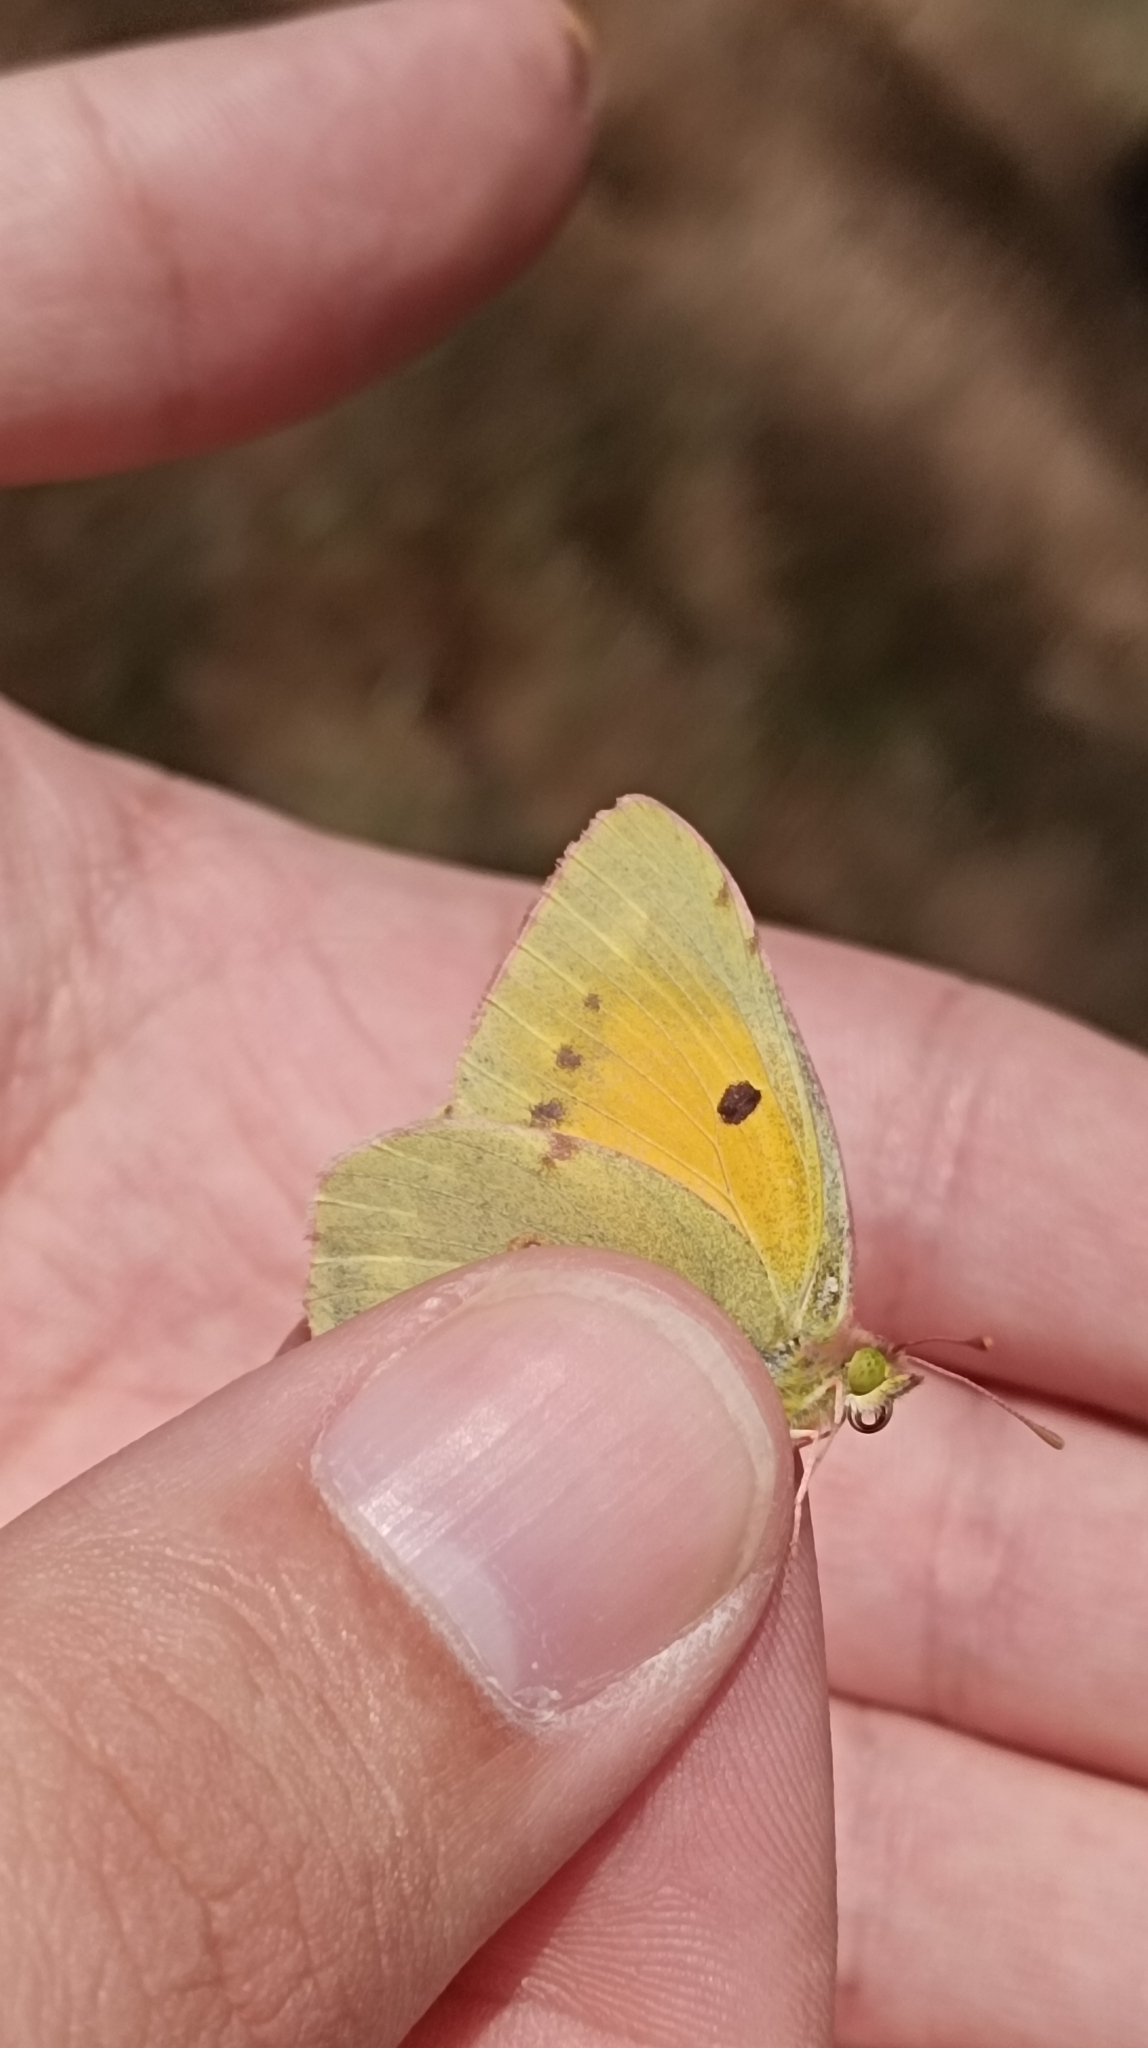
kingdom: Animalia
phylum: Arthropoda
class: Insecta
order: Lepidoptera
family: Pieridae
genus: Colias
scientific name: Colias croceus
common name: Clouded yellow
